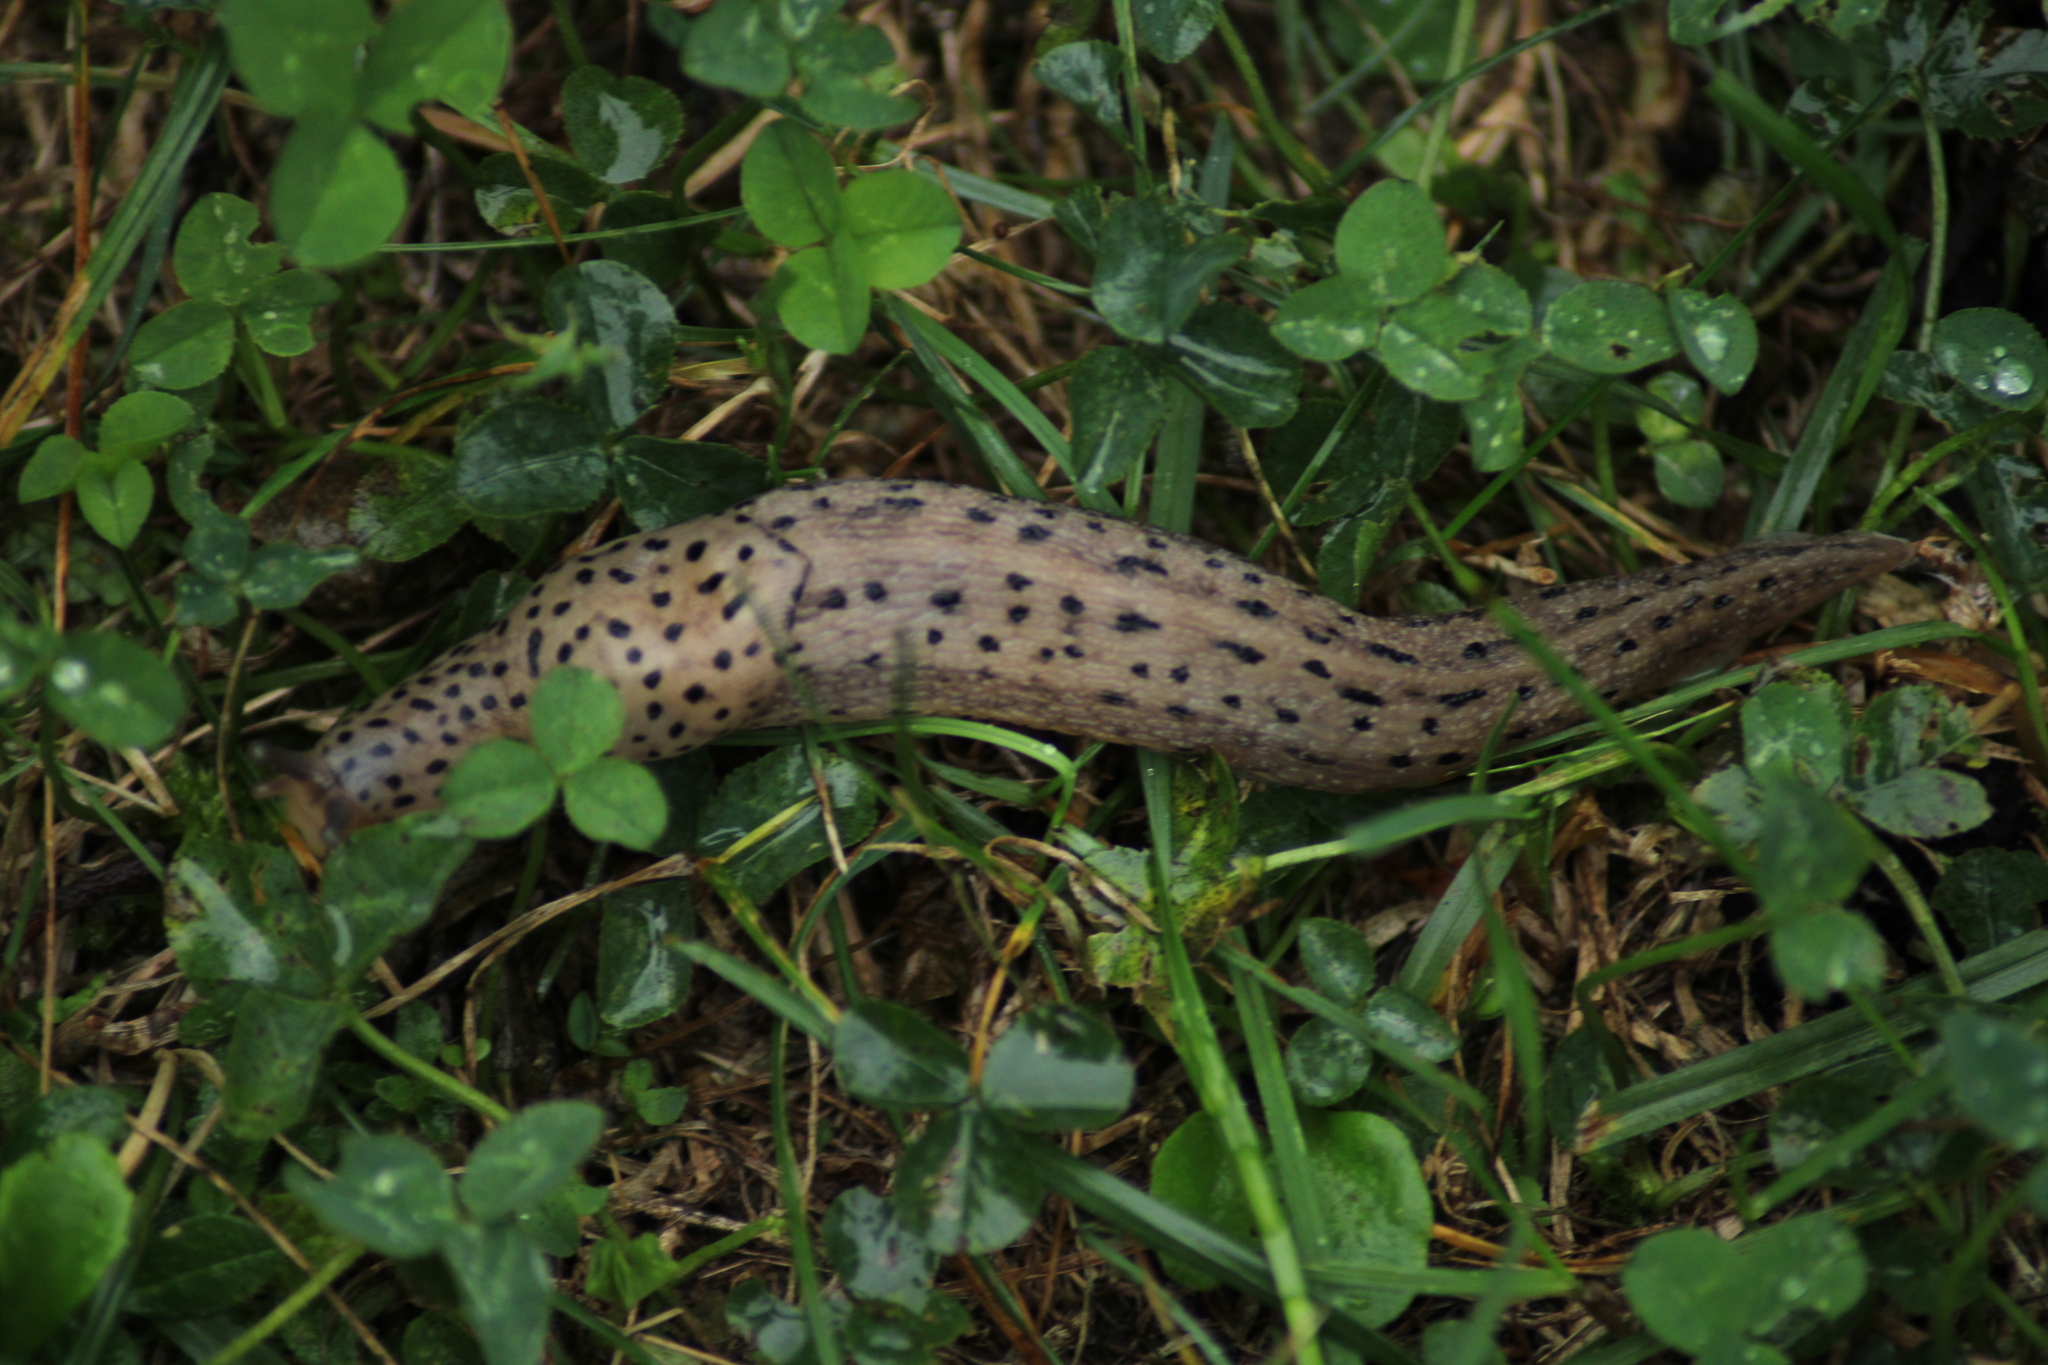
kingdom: Animalia
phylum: Mollusca
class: Gastropoda
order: Stylommatophora
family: Limacidae
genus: Limax
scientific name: Limax maximus
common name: Great grey slug
